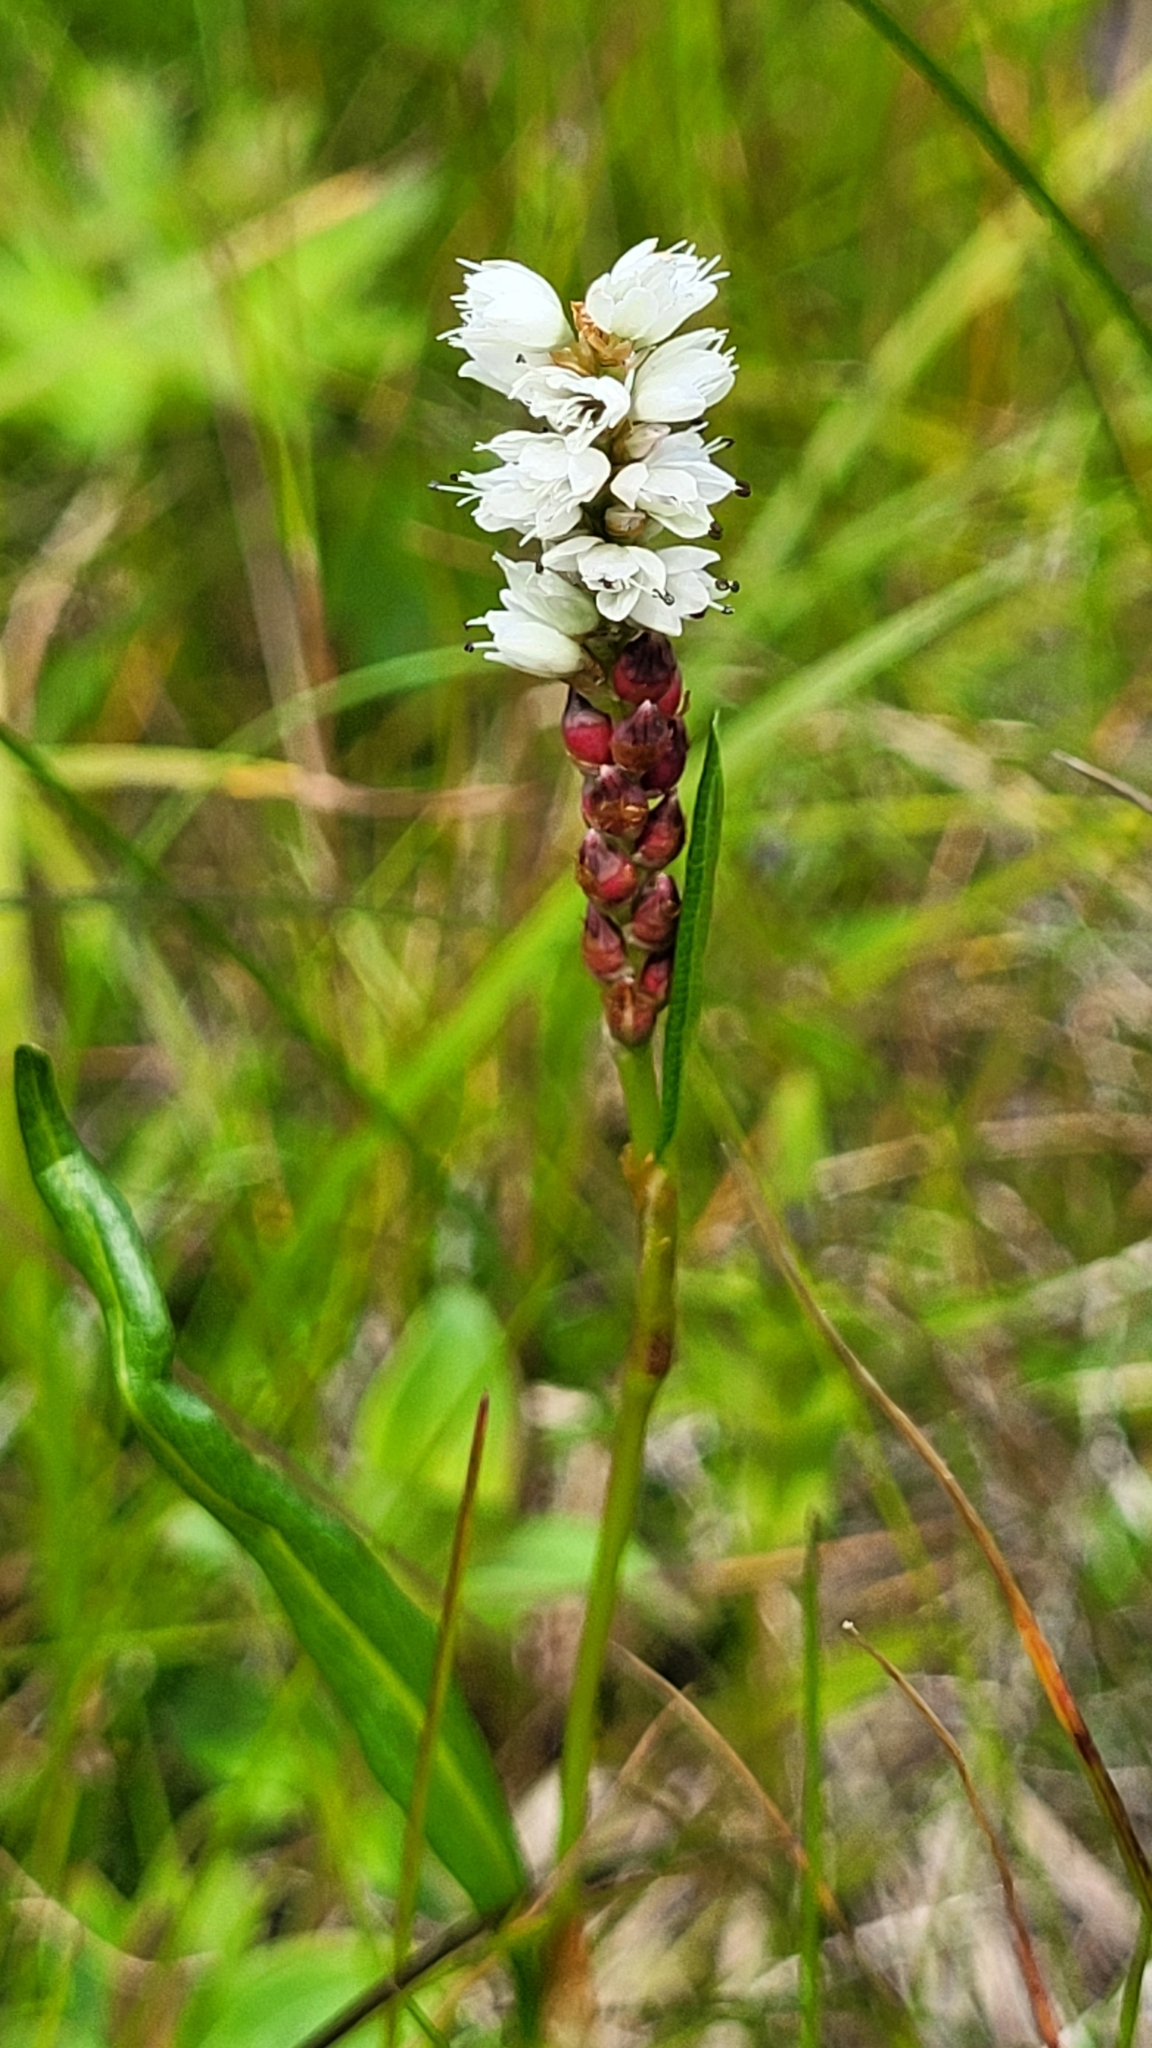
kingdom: Plantae
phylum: Tracheophyta
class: Magnoliopsida
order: Caryophyllales
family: Polygonaceae
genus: Bistorta
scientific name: Bistorta vivipara
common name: Alpine bistort
